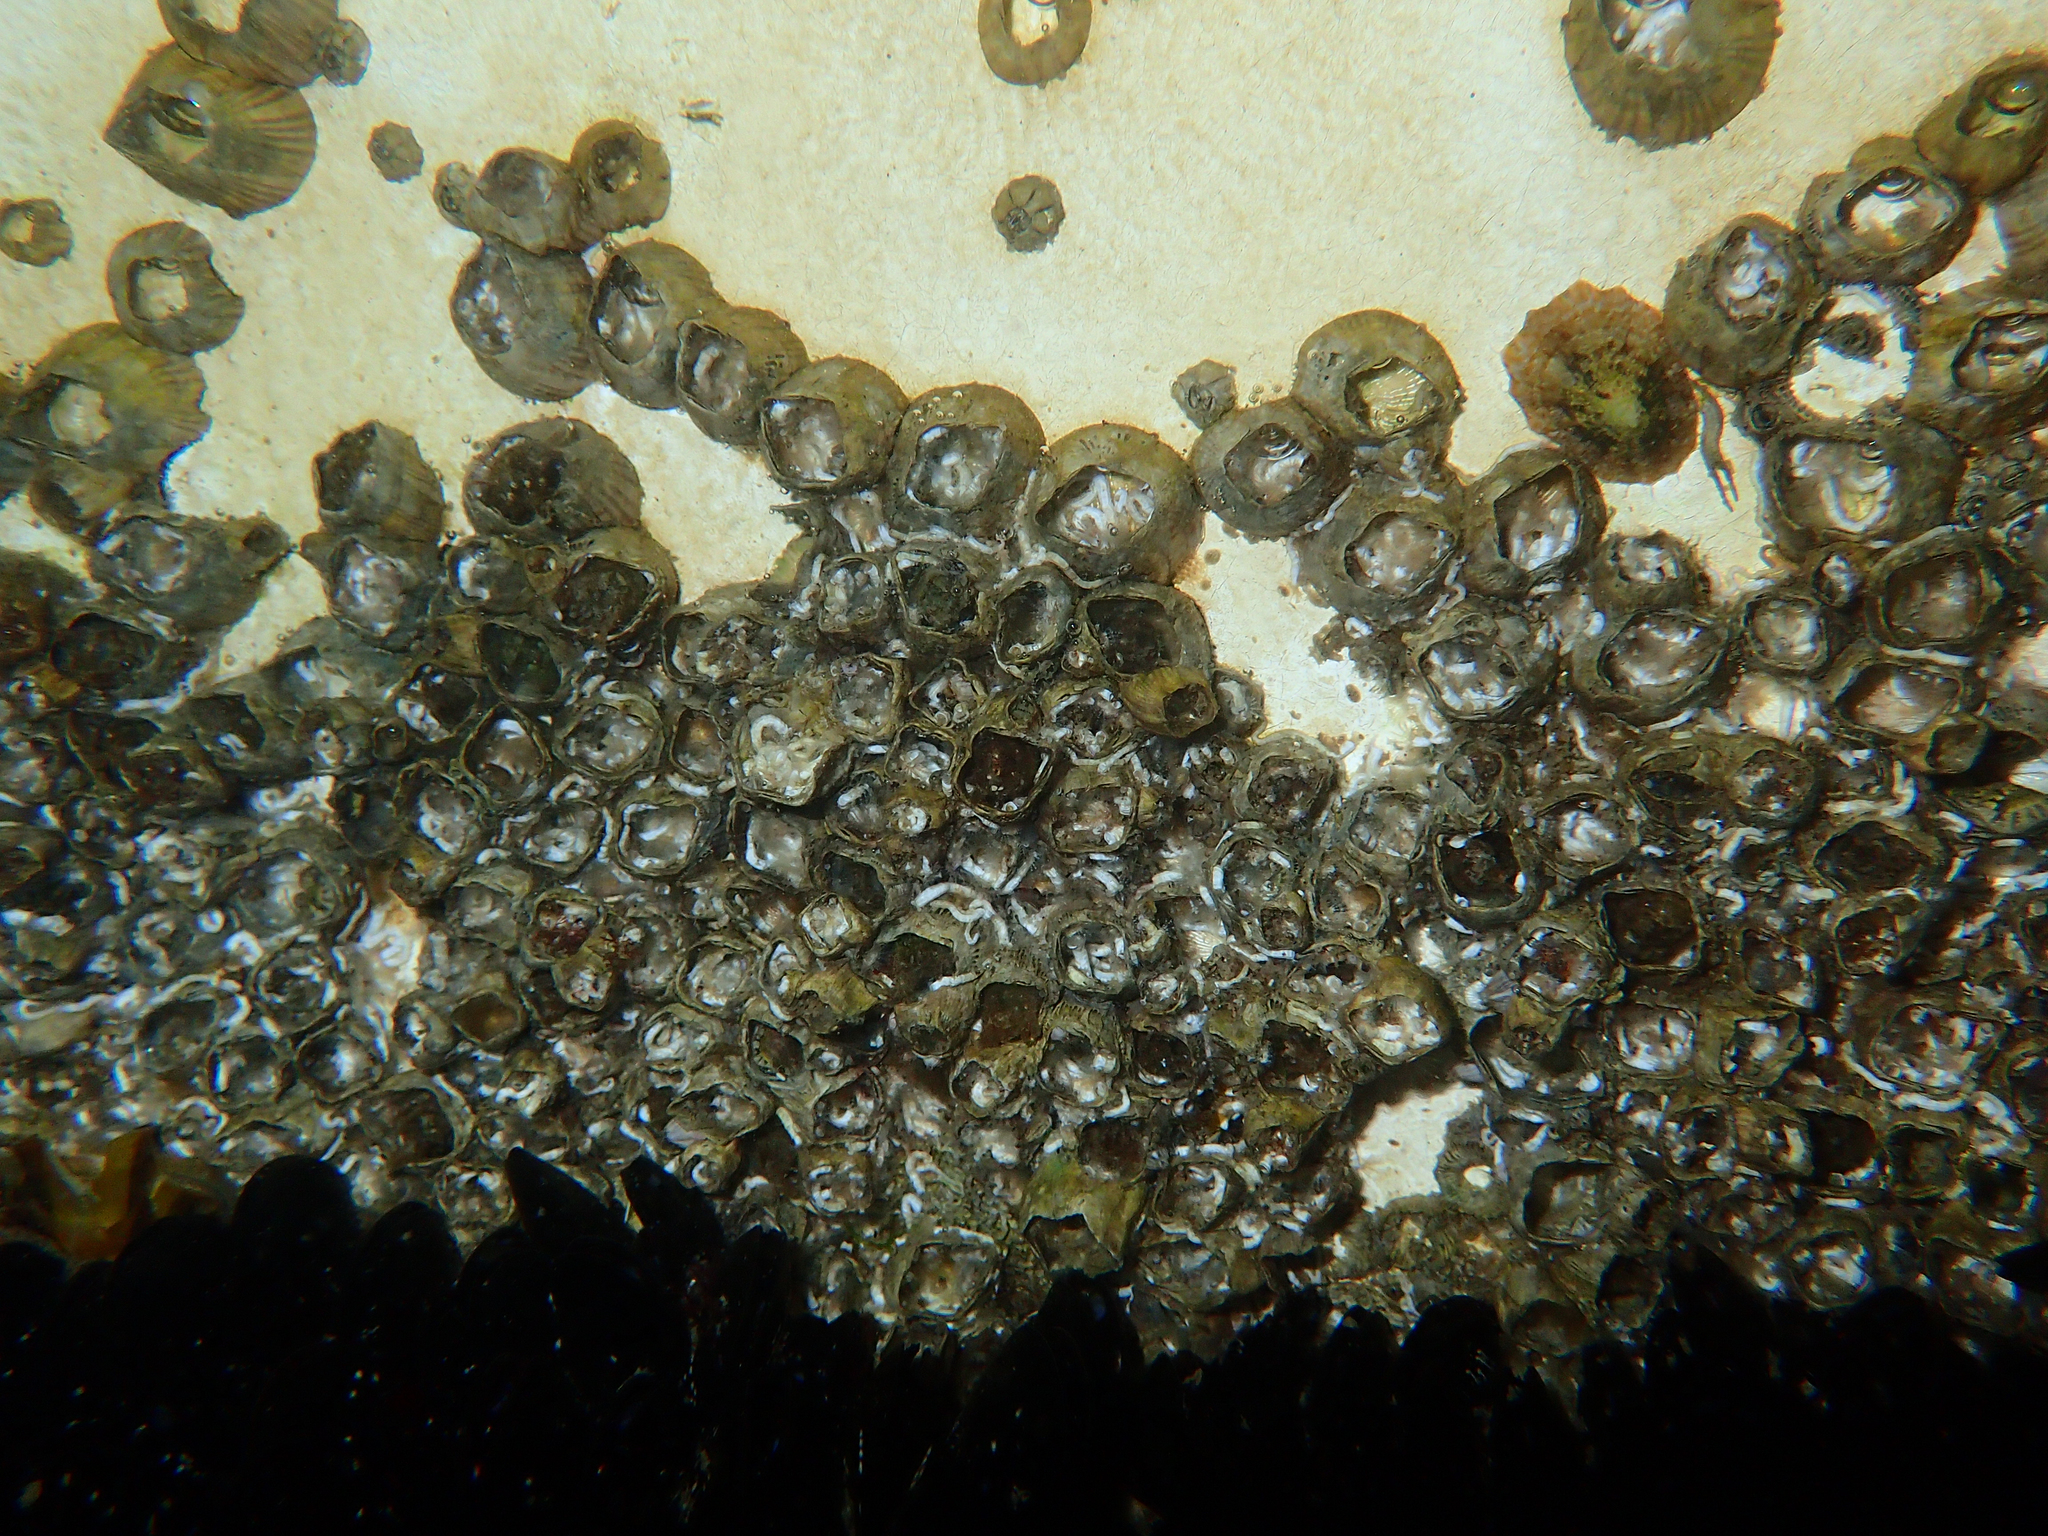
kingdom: Animalia
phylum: Arthropoda
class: Maxillopoda
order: Sessilia
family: Balanidae
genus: Amphibalanus
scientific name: Amphibalanus amphitrite
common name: Striped acorn barnacle
